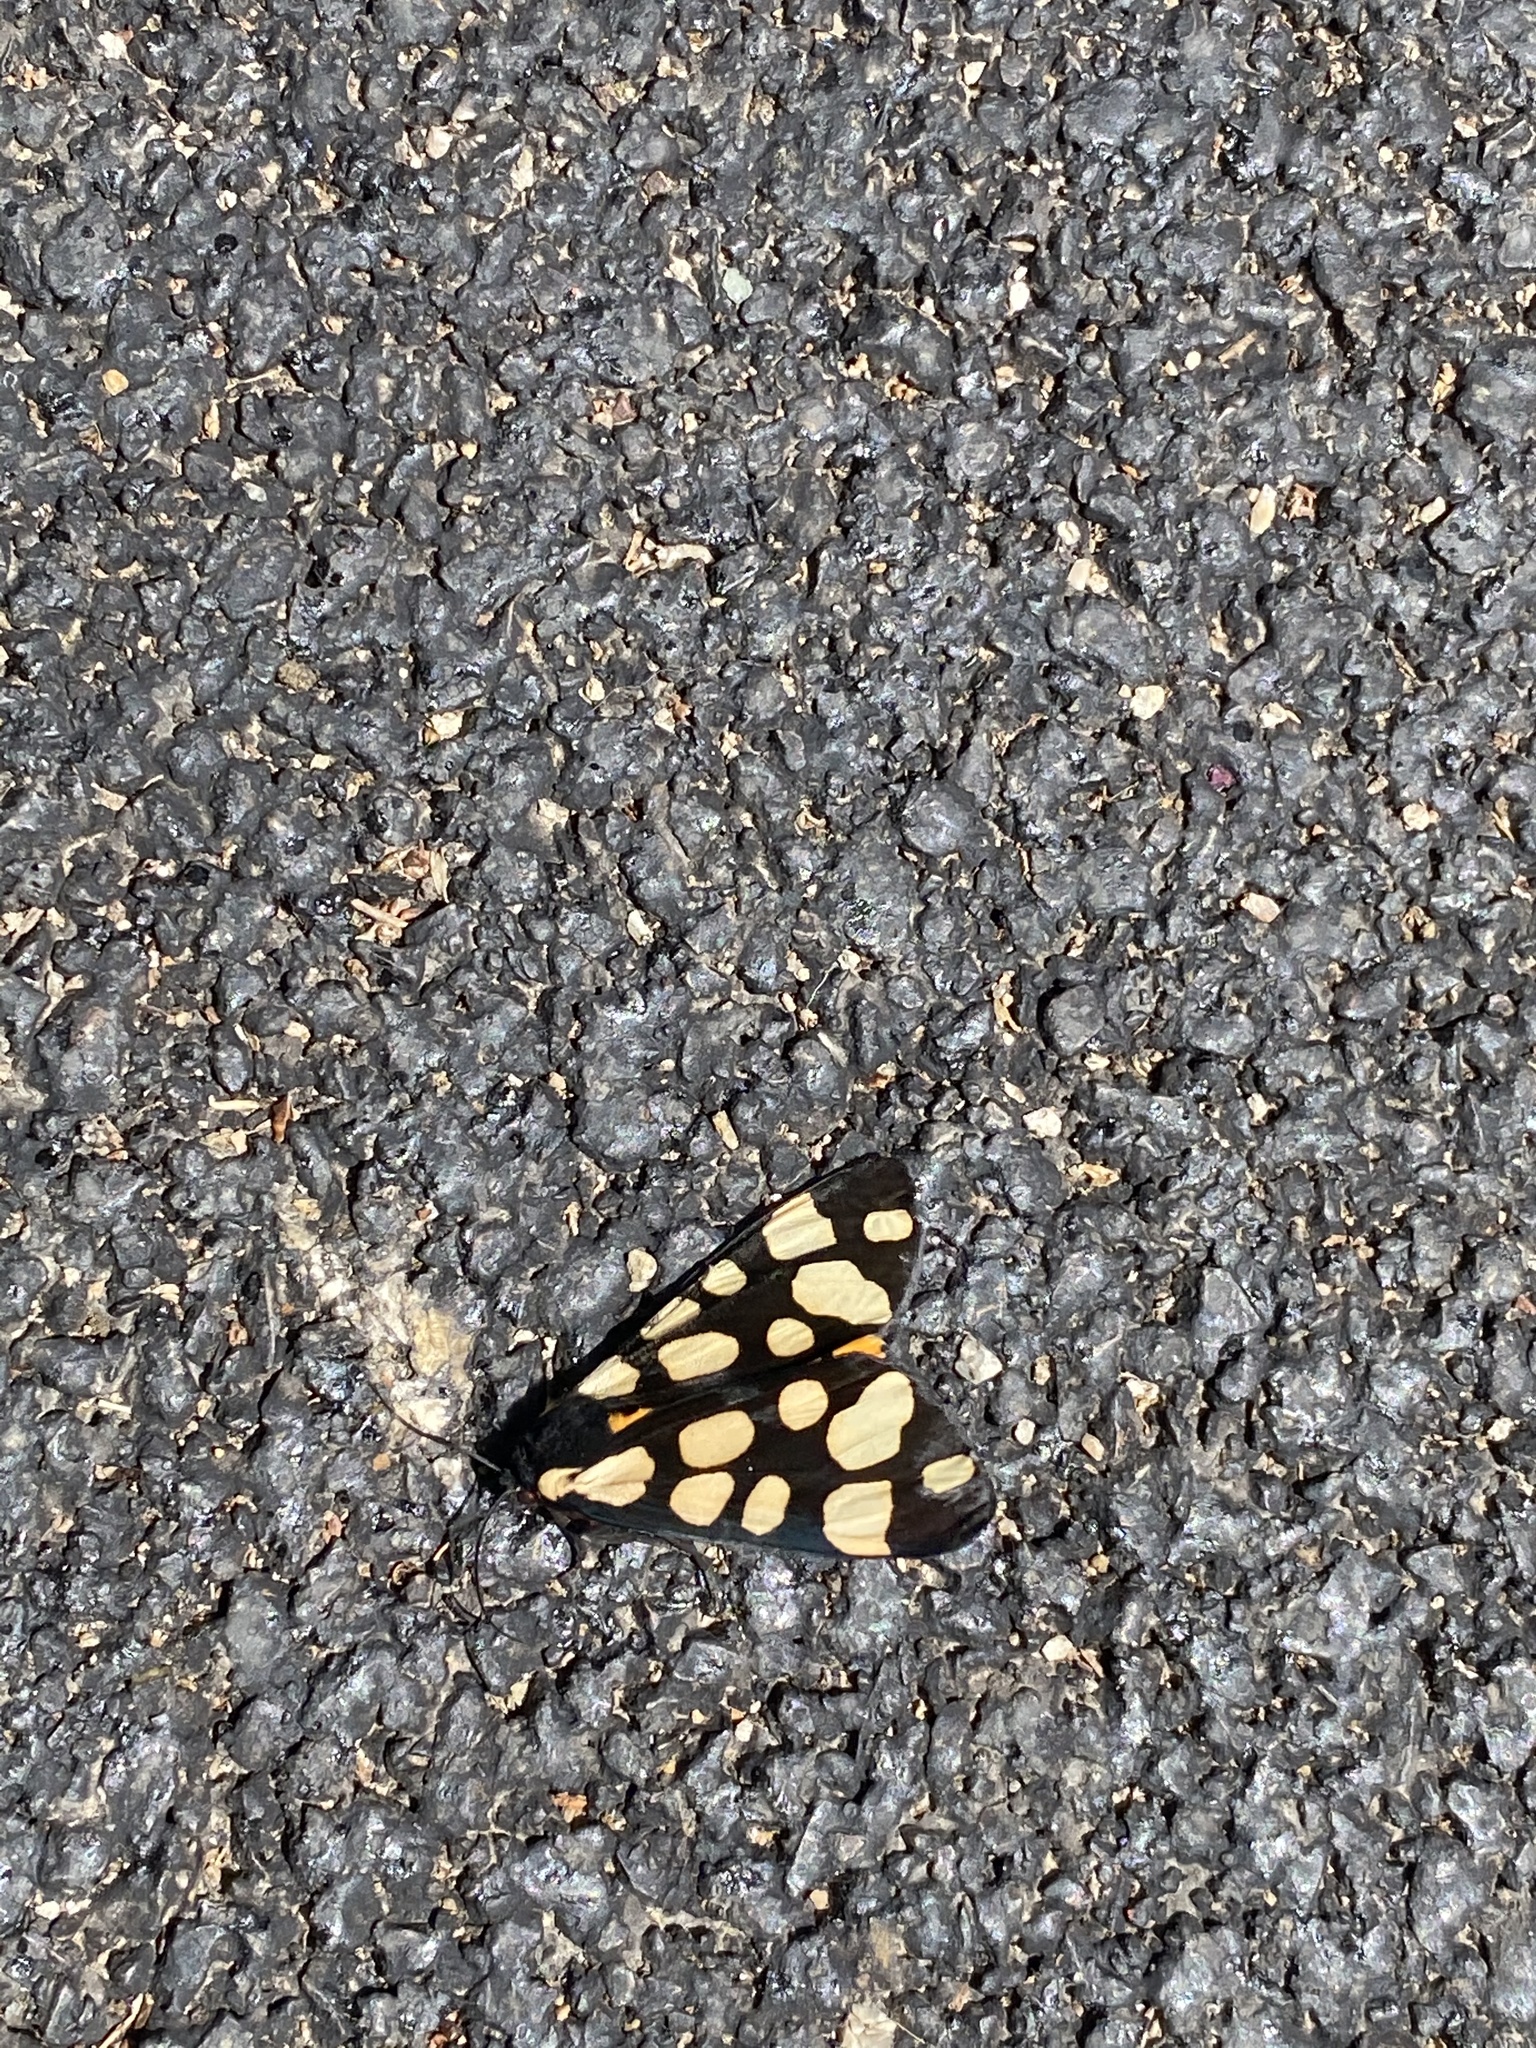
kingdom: Animalia
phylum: Arthropoda
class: Insecta
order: Lepidoptera
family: Erebidae
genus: Epicallia
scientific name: Epicallia villica
